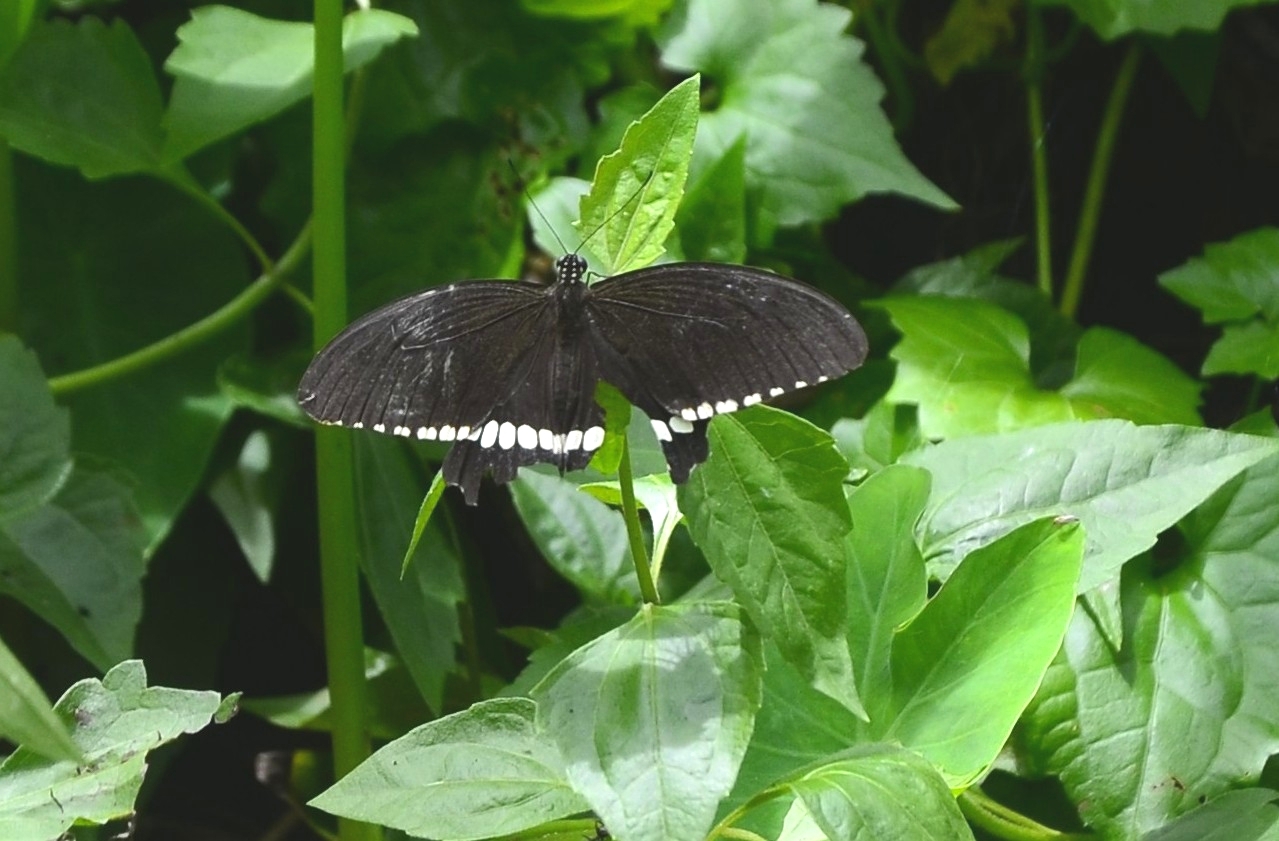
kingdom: Animalia
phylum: Arthropoda
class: Insecta
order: Lepidoptera
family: Papilionidae
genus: Papilio
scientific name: Papilio polytes
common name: Common mormon
